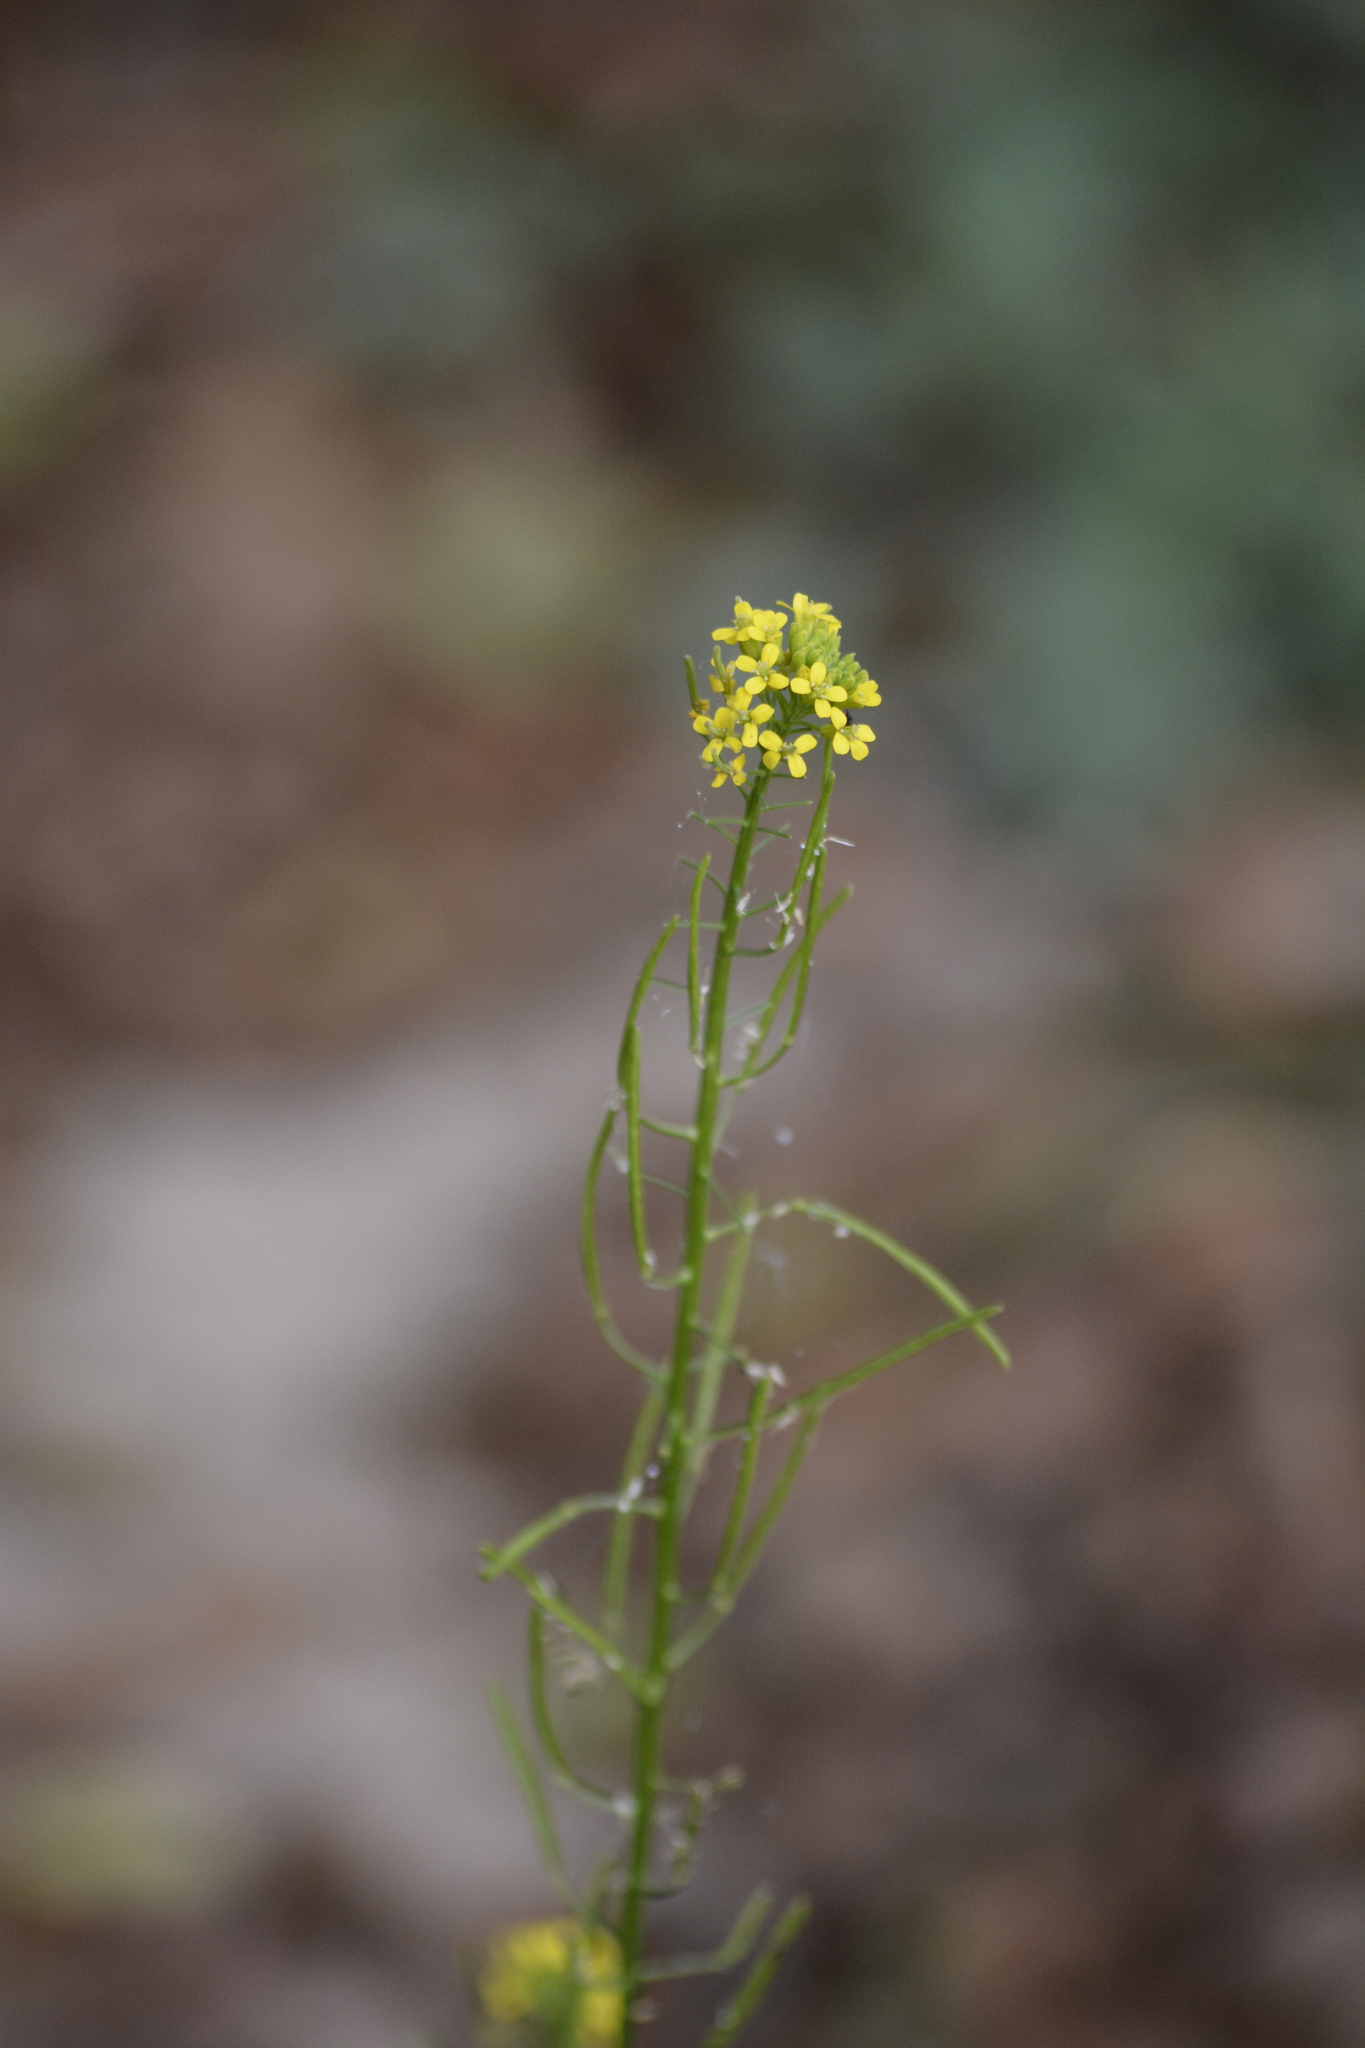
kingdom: Plantae
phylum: Tracheophyta
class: Magnoliopsida
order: Brassicales
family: Brassicaceae
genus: Erysimum
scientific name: Erysimum cheiranthoides
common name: Treacle mustard
